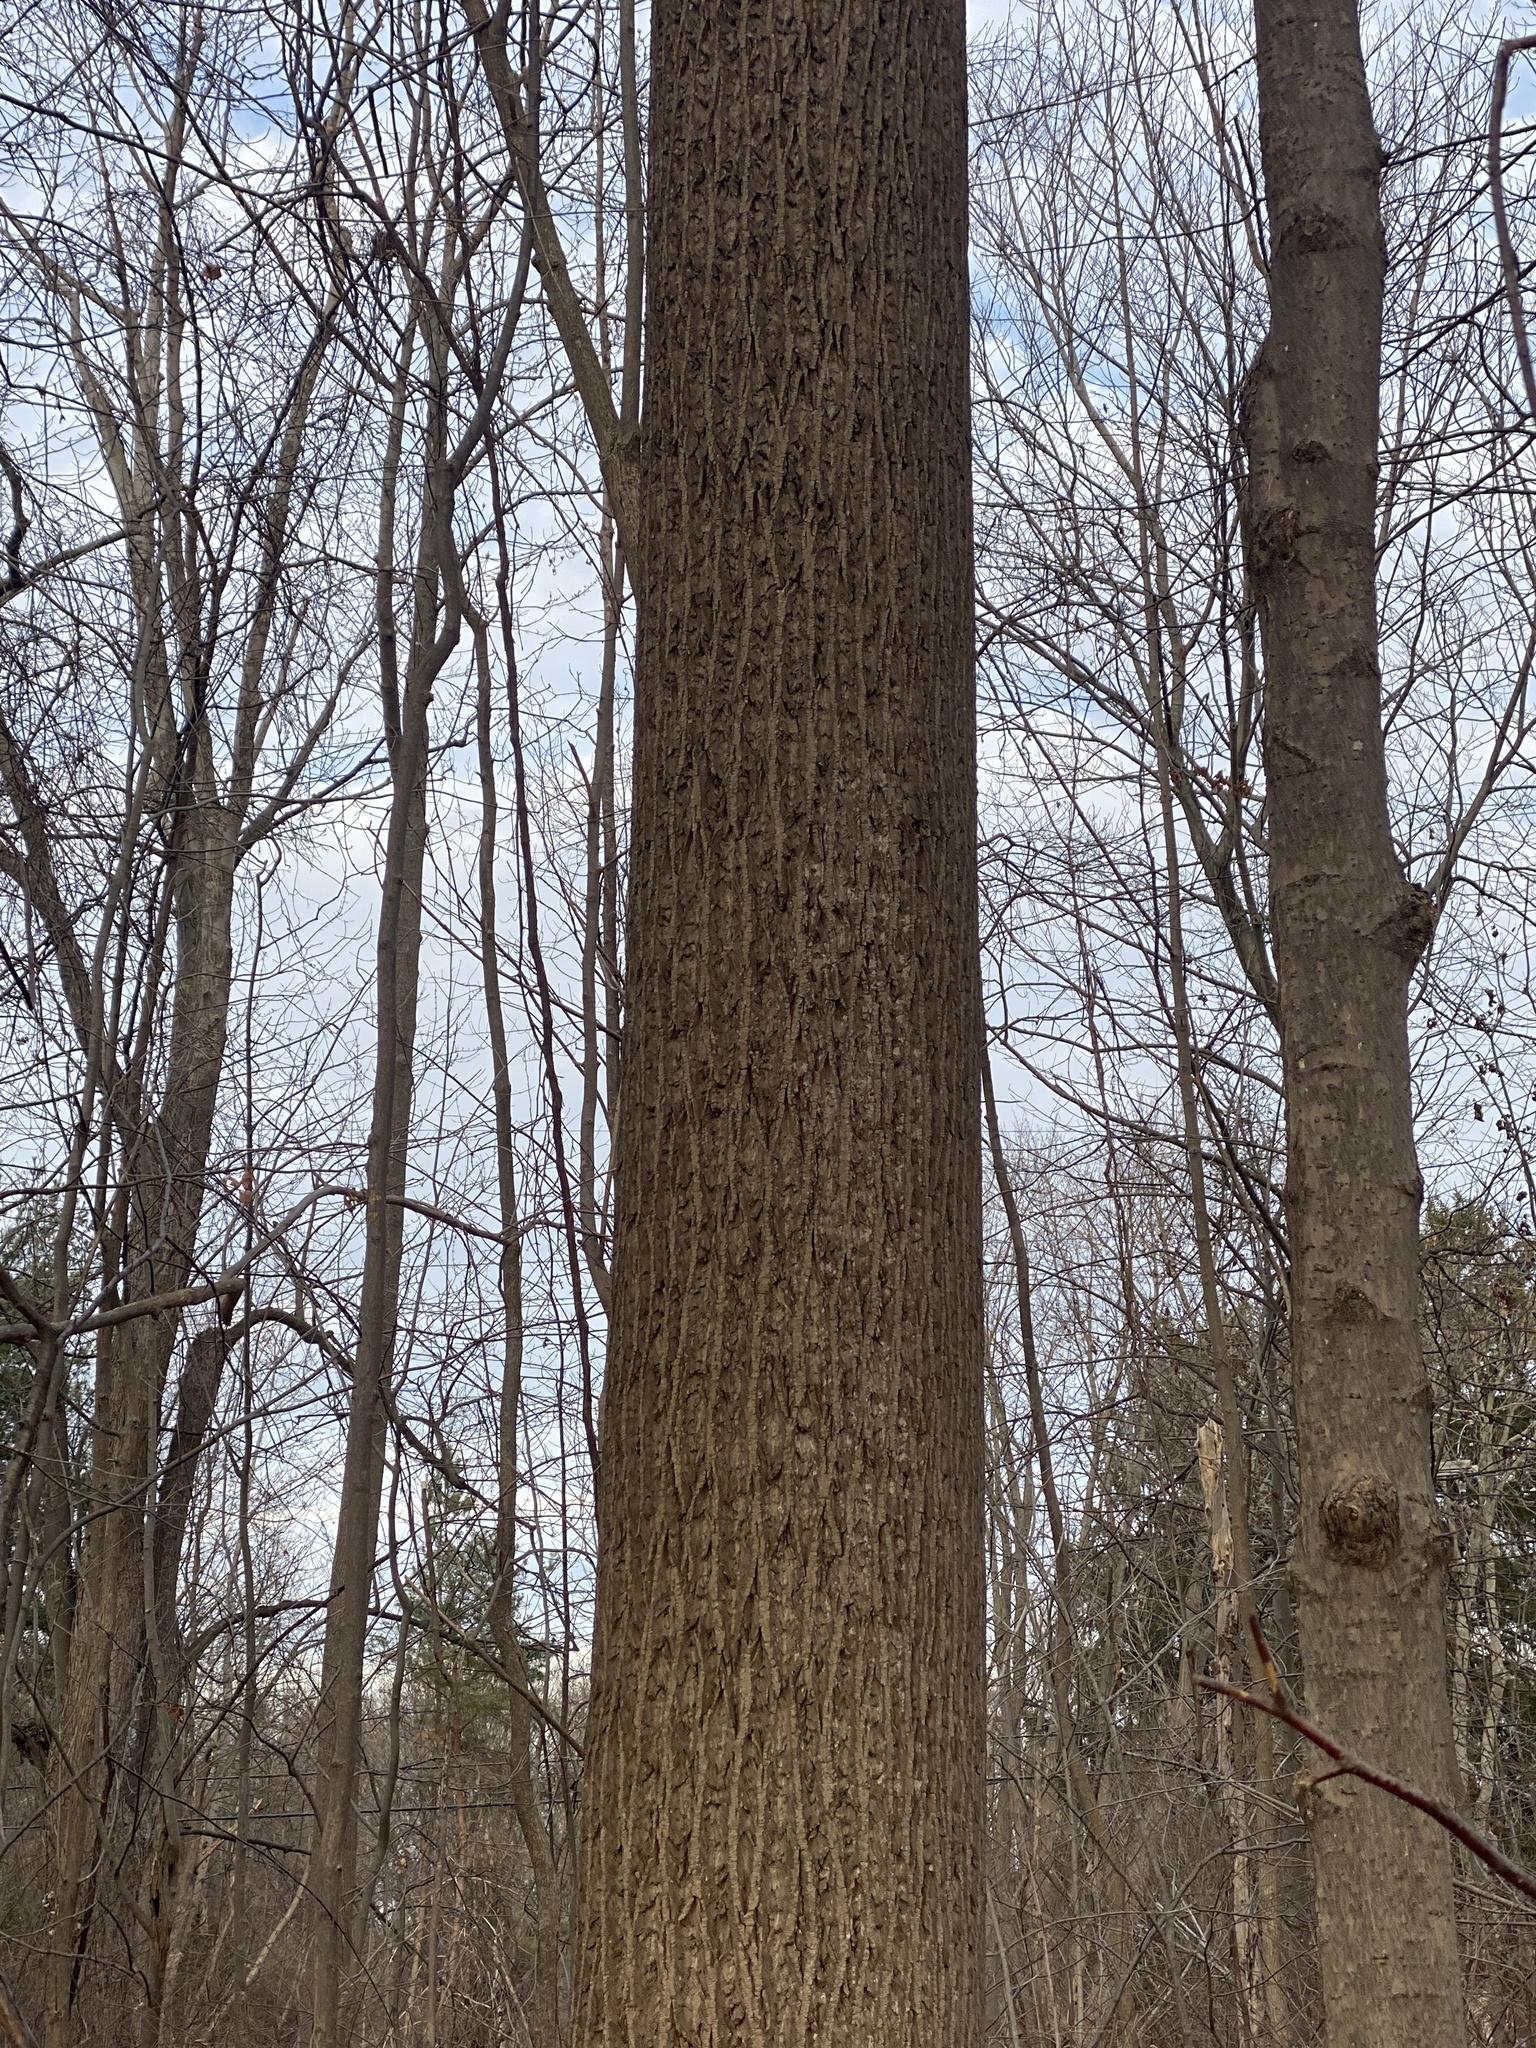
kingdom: Plantae
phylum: Tracheophyta
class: Magnoliopsida
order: Magnoliales
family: Magnoliaceae
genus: Liriodendron
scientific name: Liriodendron tulipifera
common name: Tulip tree
